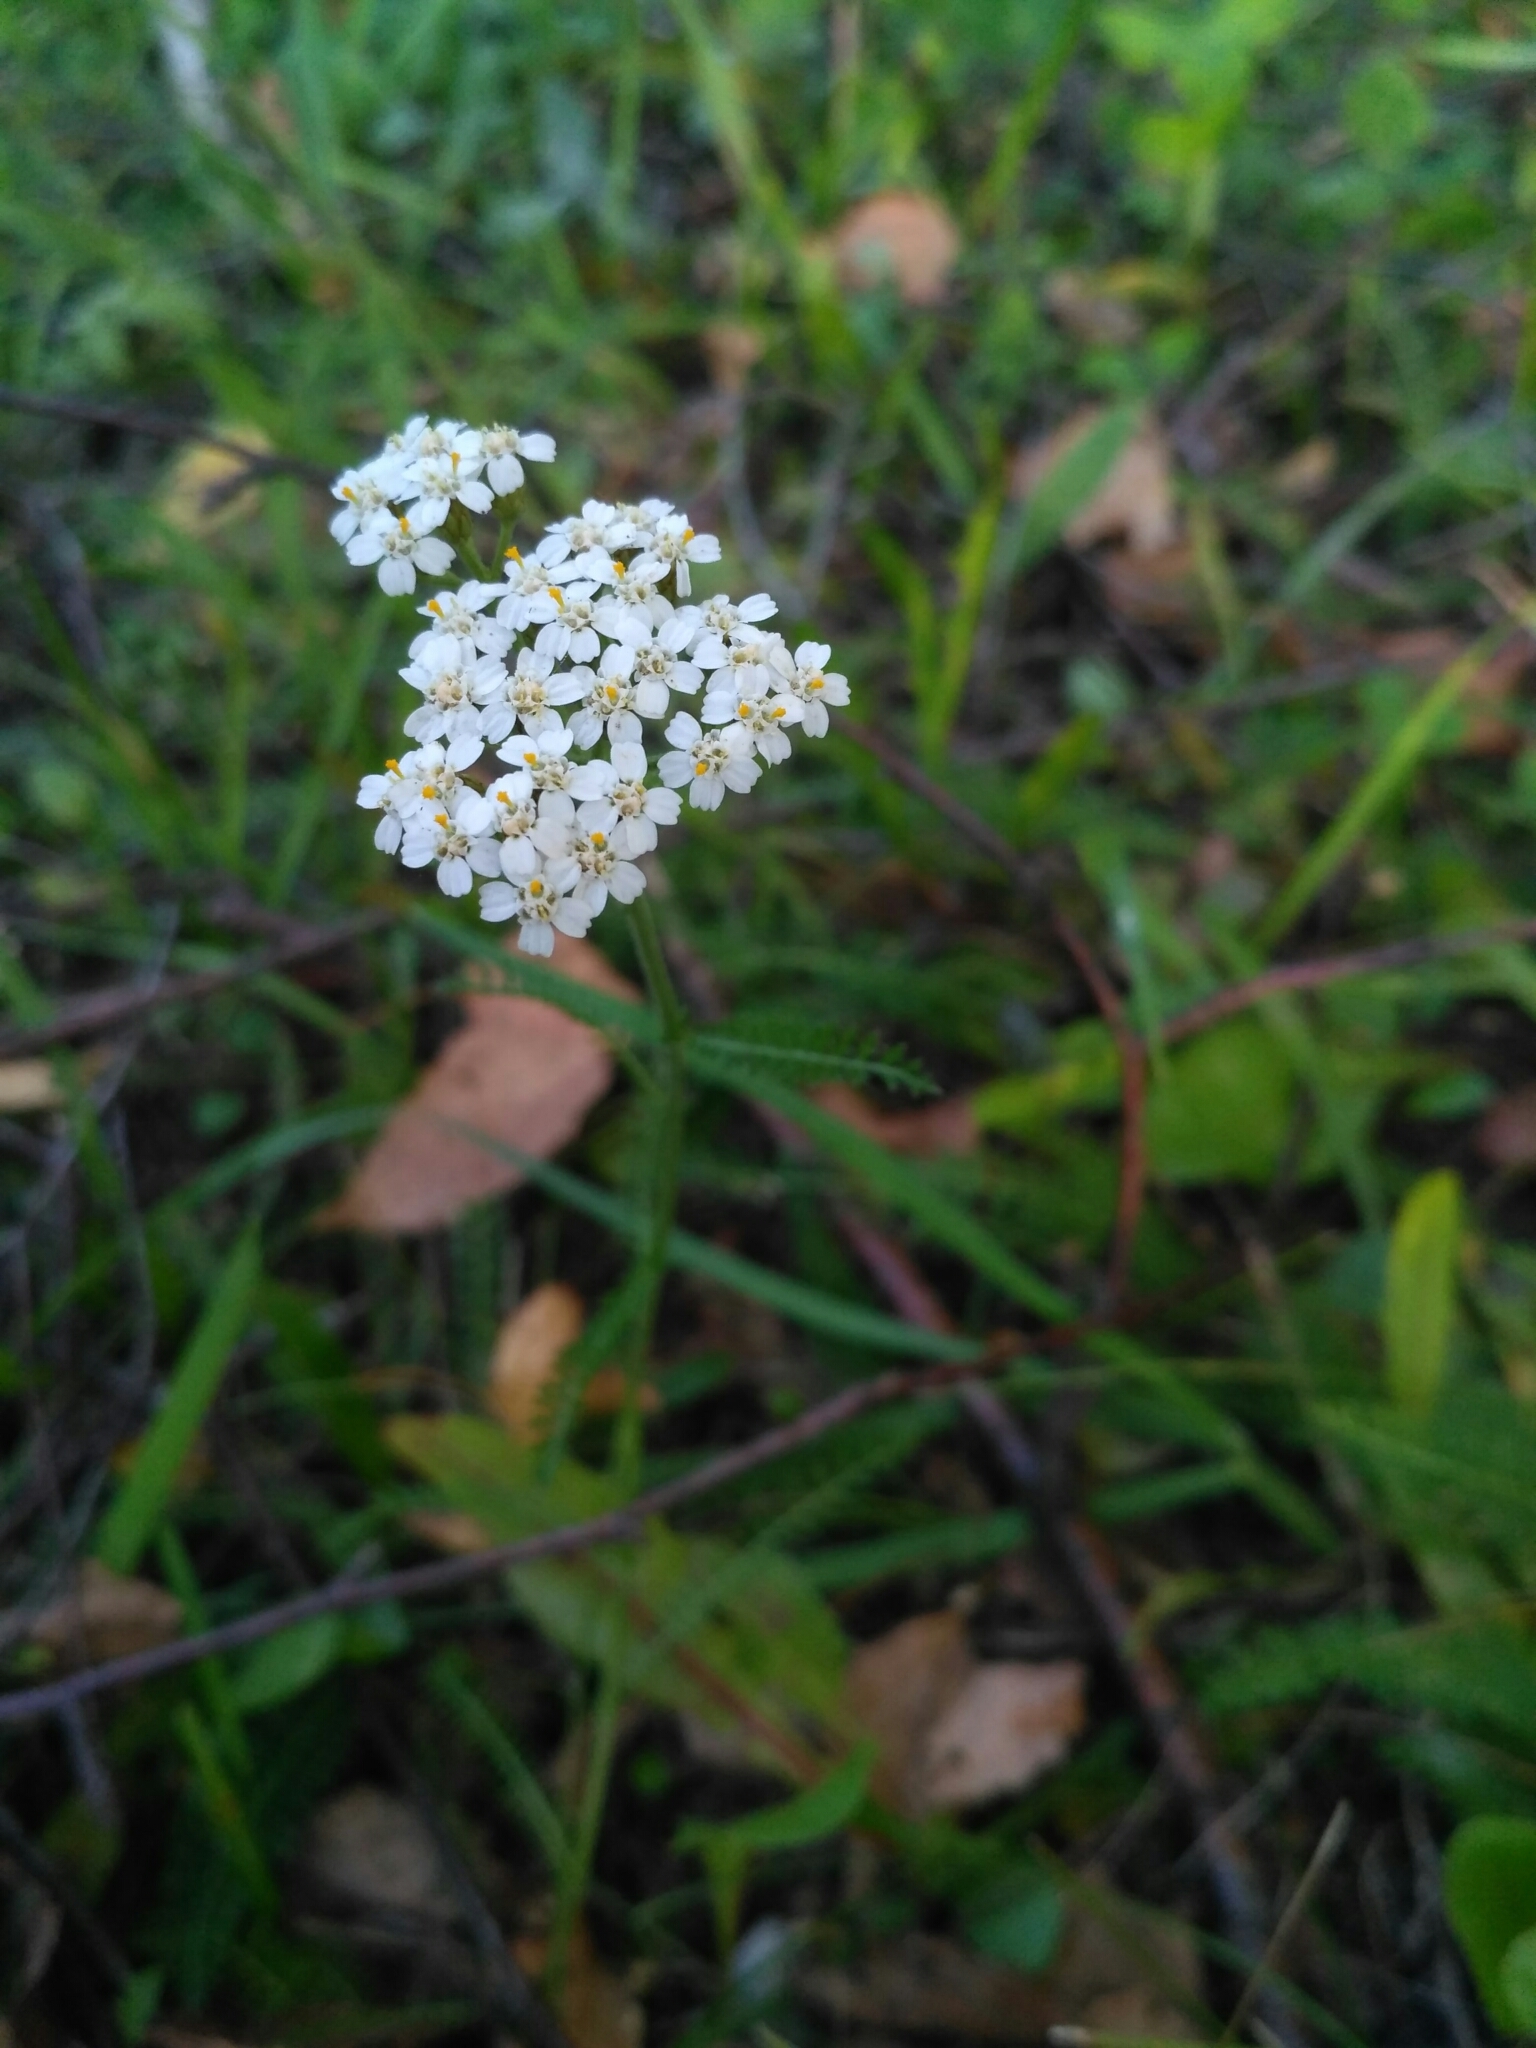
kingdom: Plantae
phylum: Tracheophyta
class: Magnoliopsida
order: Asterales
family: Asteraceae
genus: Achillea
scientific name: Achillea millefolium
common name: Yarrow
